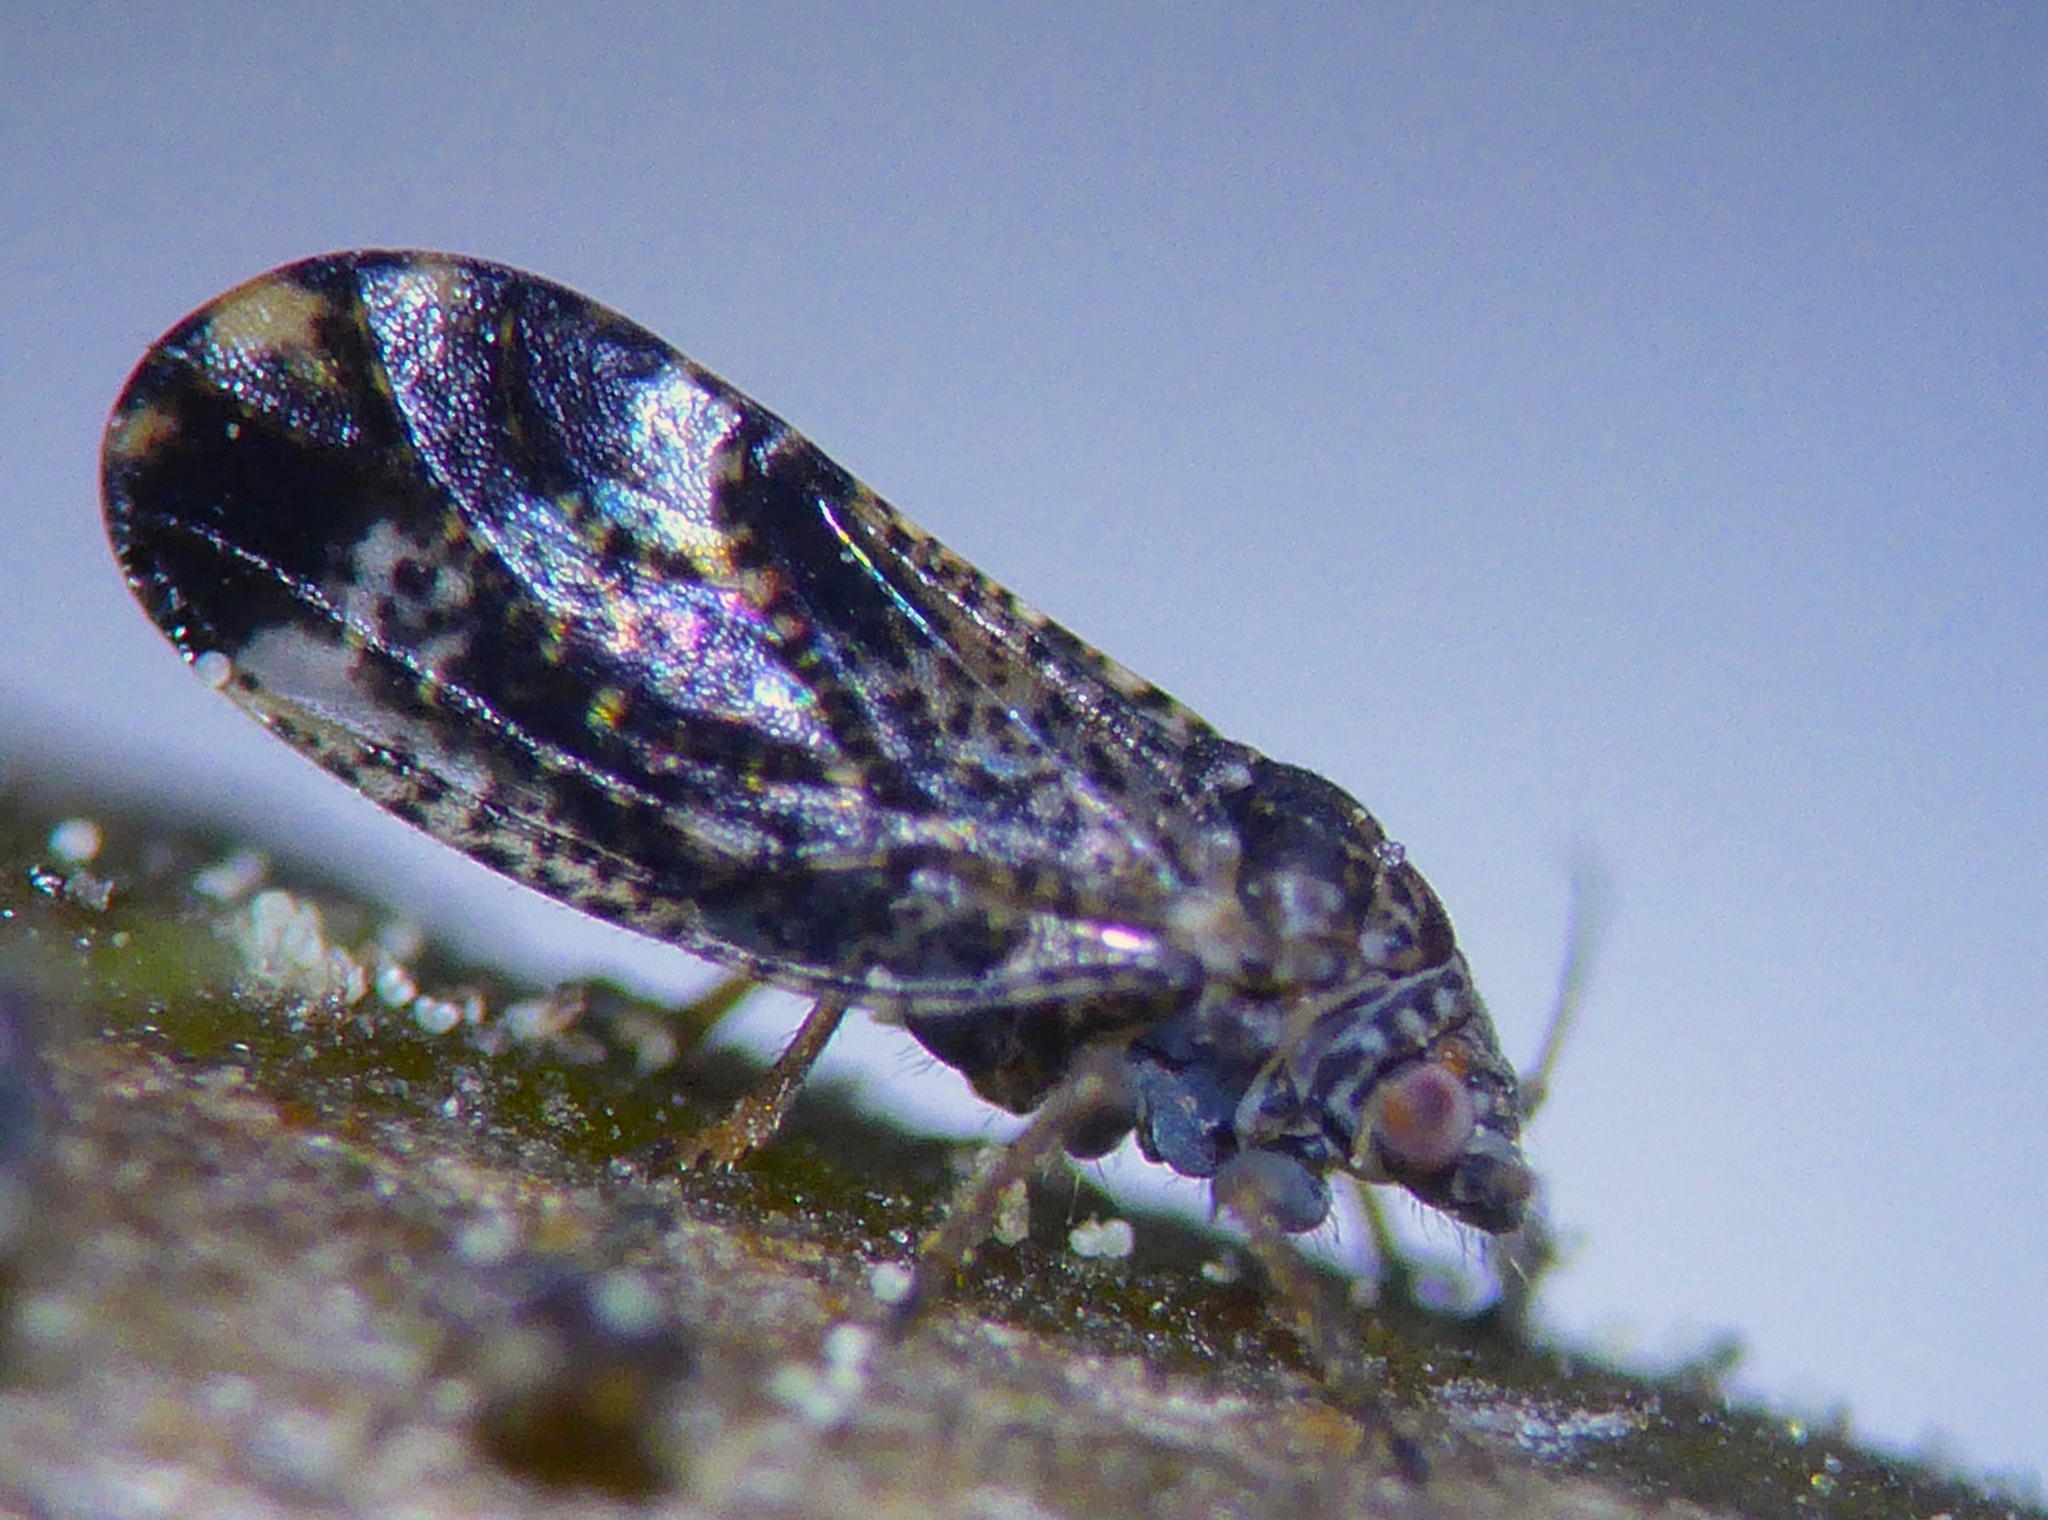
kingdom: Animalia
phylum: Arthropoda
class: Insecta
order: Hemiptera
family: Psyllidae
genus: Acizzia
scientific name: Acizzia apicalis
